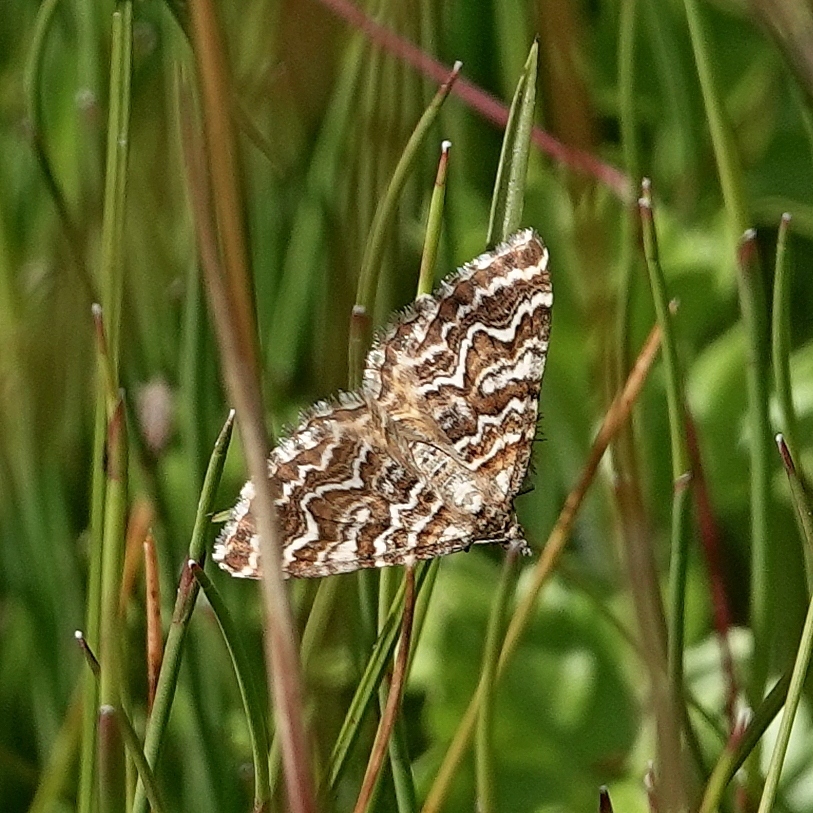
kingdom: Animalia
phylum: Arthropoda
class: Insecta
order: Lepidoptera
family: Geometridae
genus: Chrysolarentia
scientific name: Chrysolarentia heliacaria
